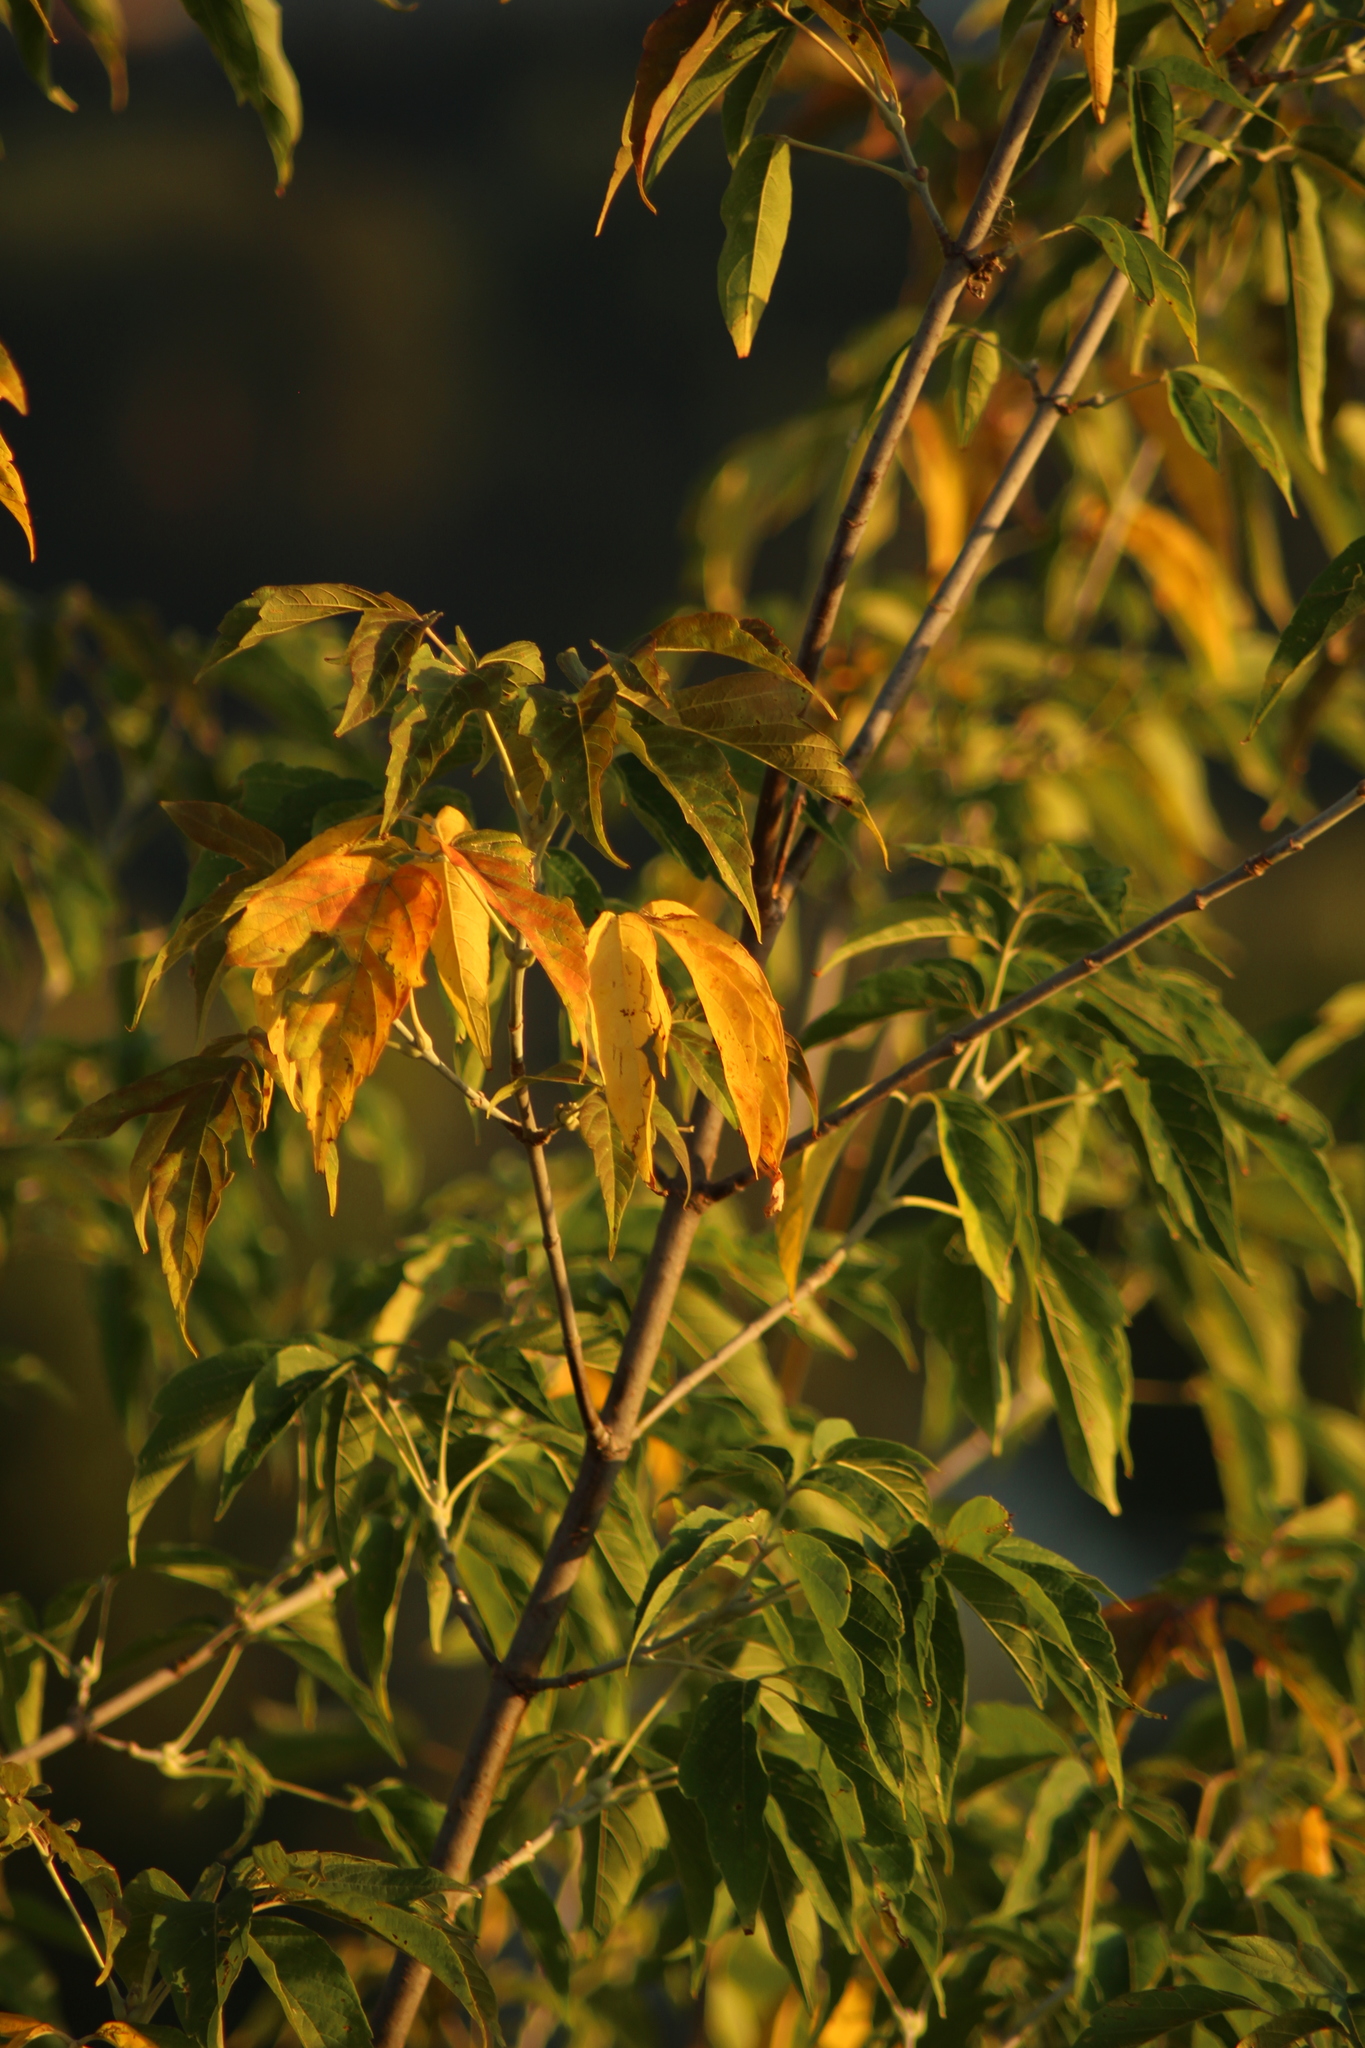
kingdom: Plantae
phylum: Tracheophyta
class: Magnoliopsida
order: Sapindales
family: Sapindaceae
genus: Acer
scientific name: Acer negundo
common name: Ashleaf maple
